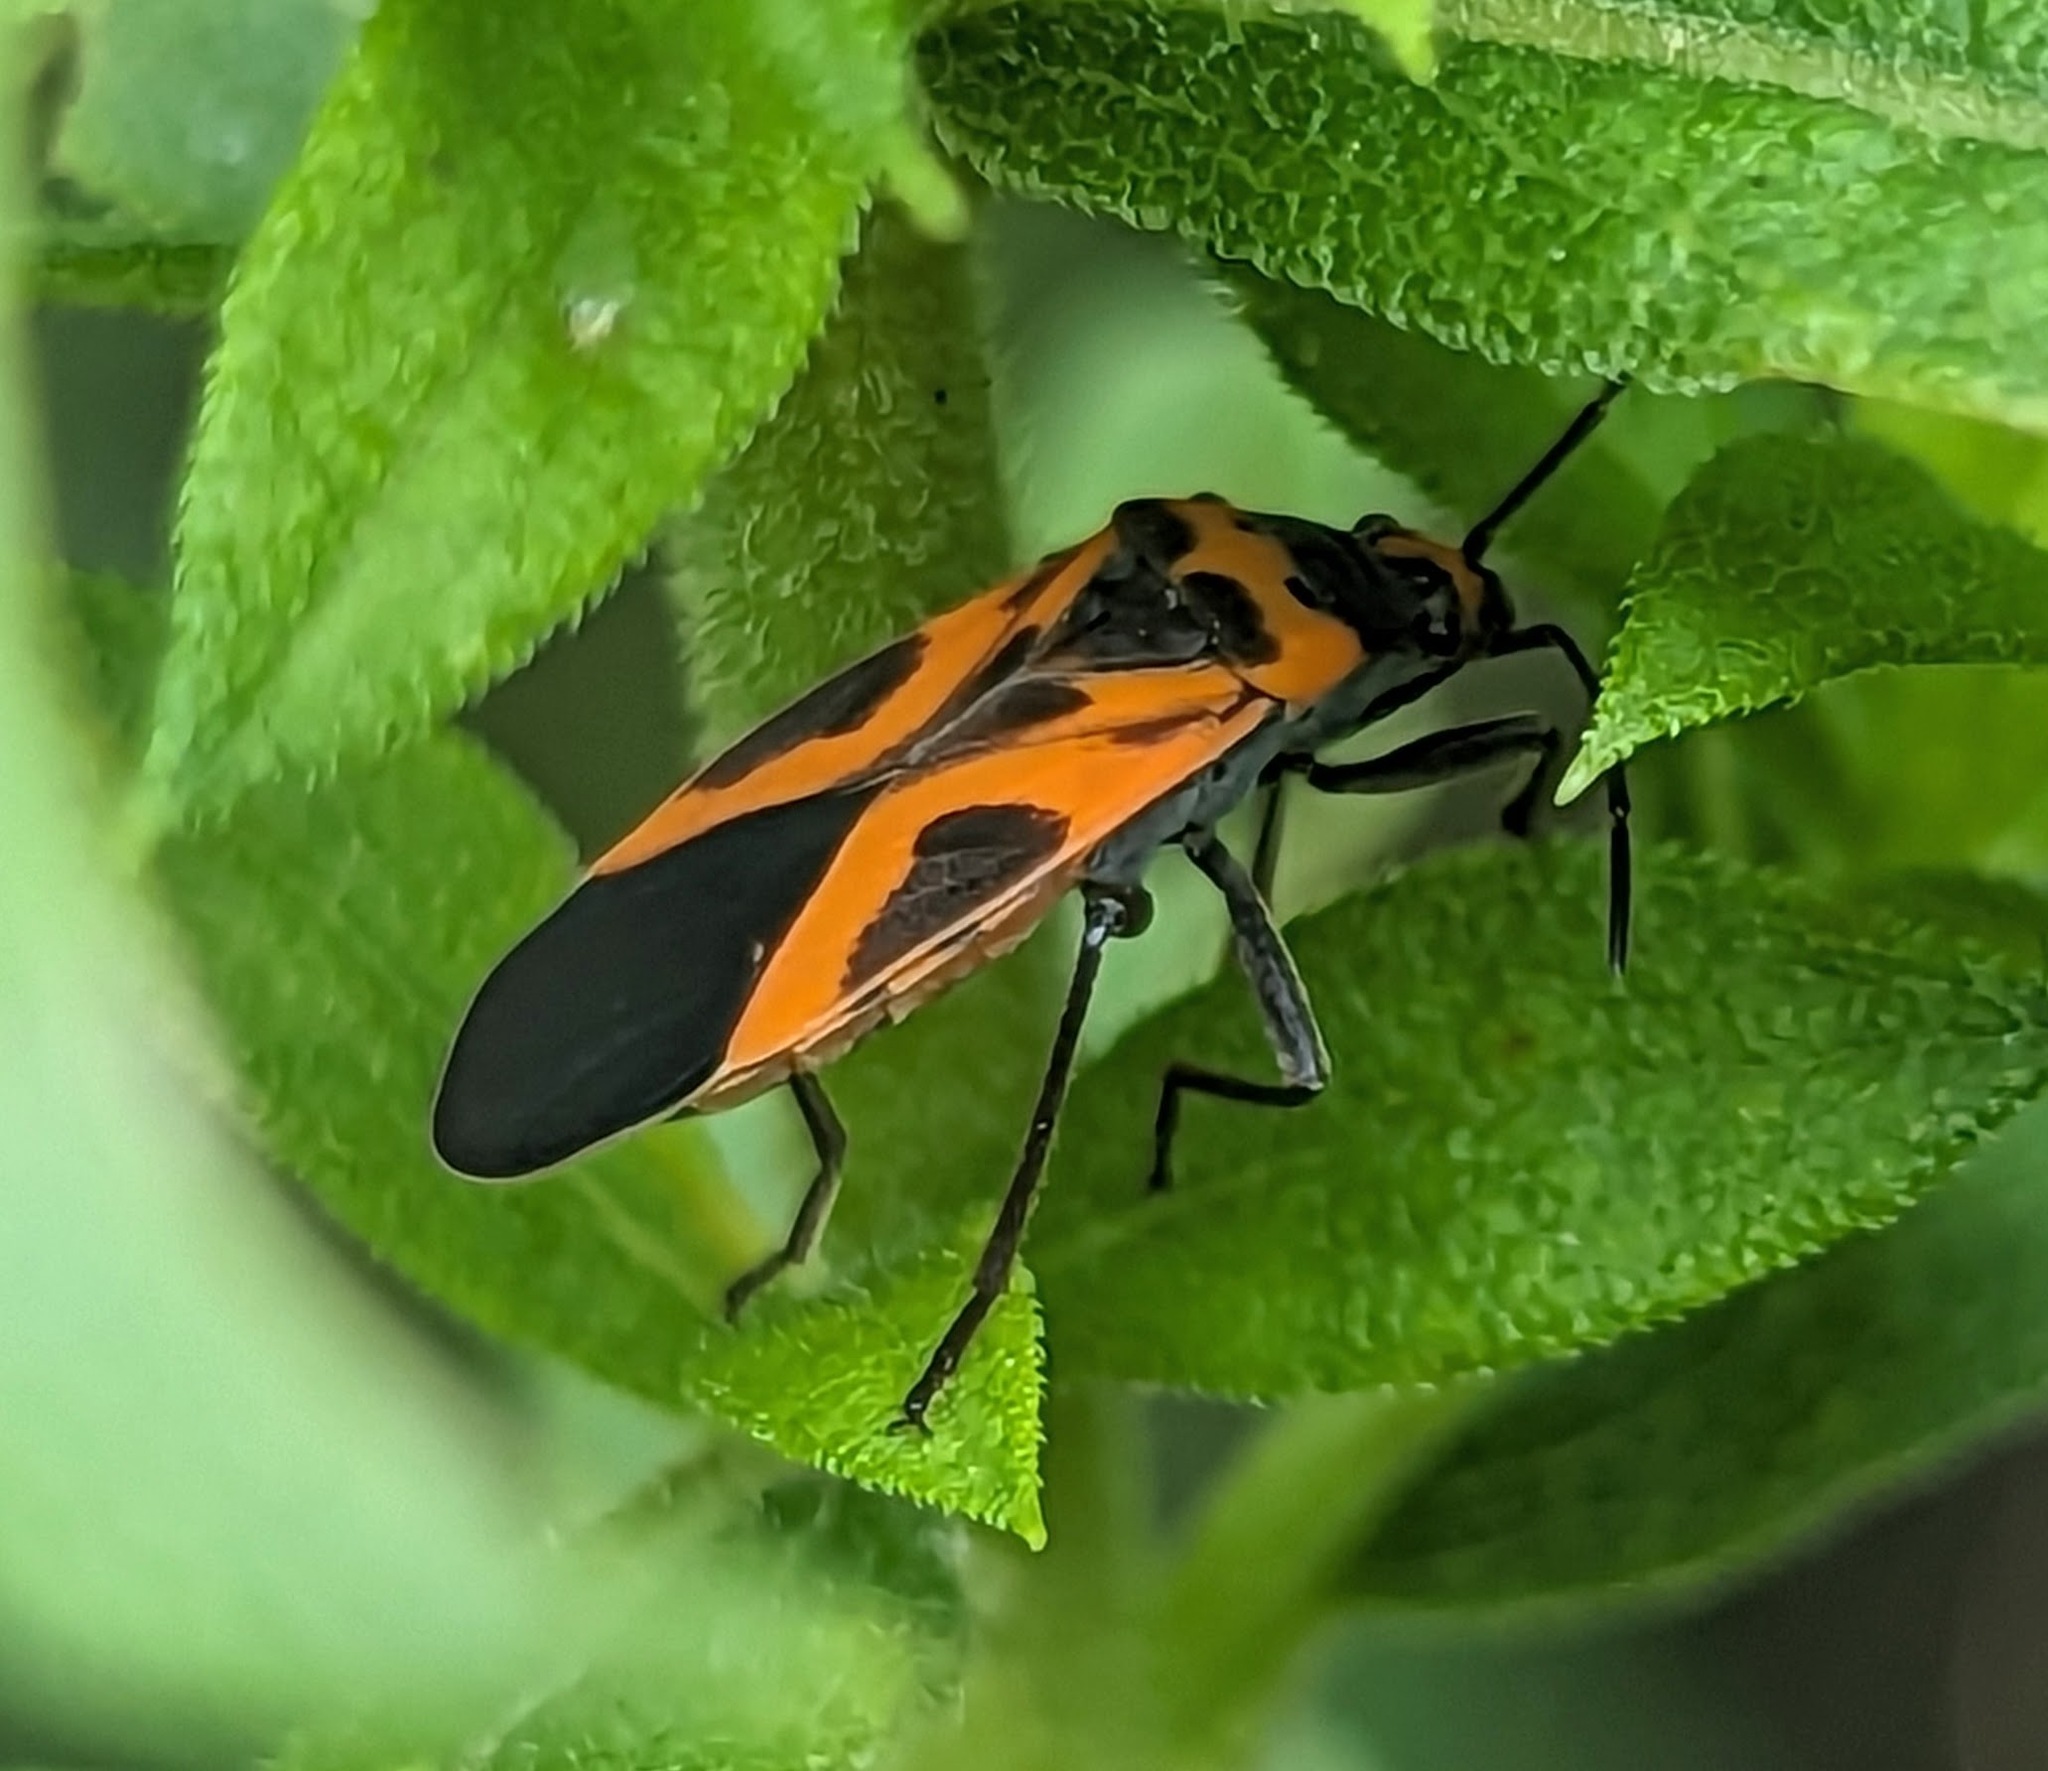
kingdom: Animalia
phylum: Arthropoda
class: Insecta
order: Hemiptera
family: Lygaeidae
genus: Lygaeus
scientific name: Lygaeus turcicus
